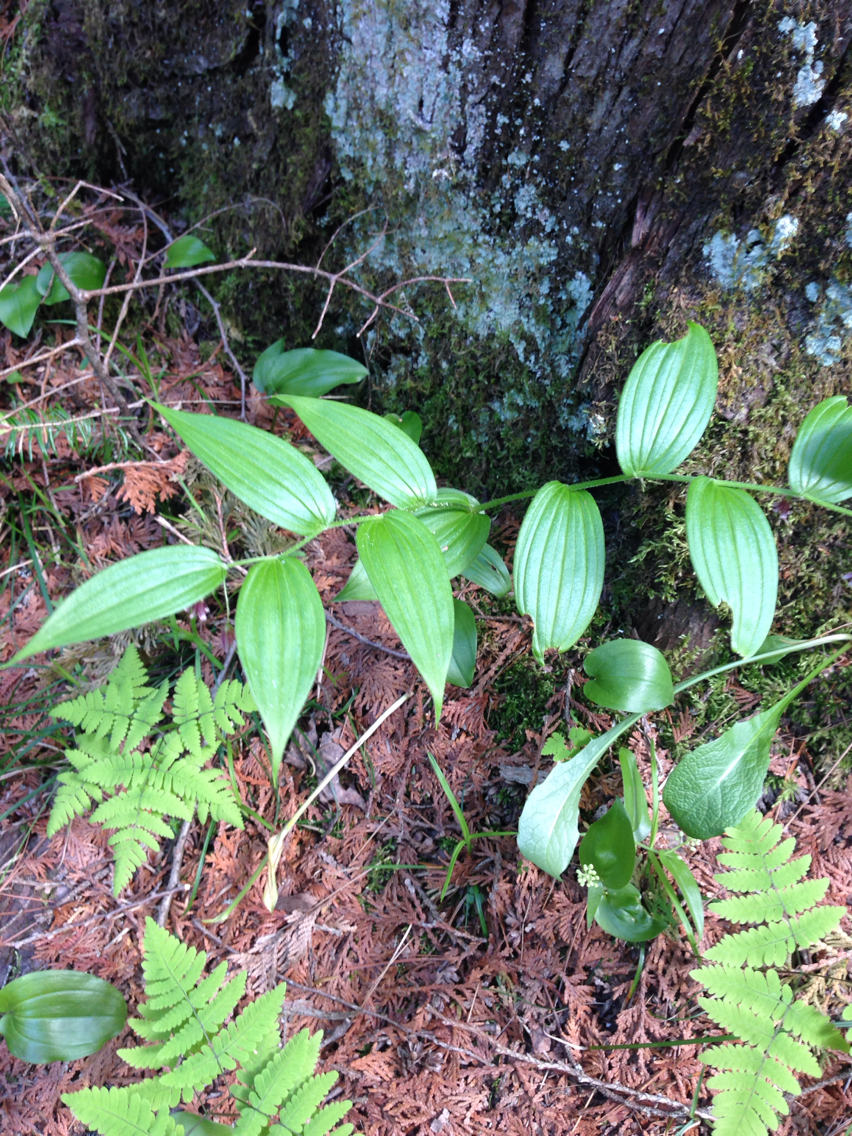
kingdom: Plantae
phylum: Tracheophyta
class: Liliopsida
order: Liliales
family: Liliaceae
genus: Streptopus
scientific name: Streptopus lanceolatus
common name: Rose mandarin
